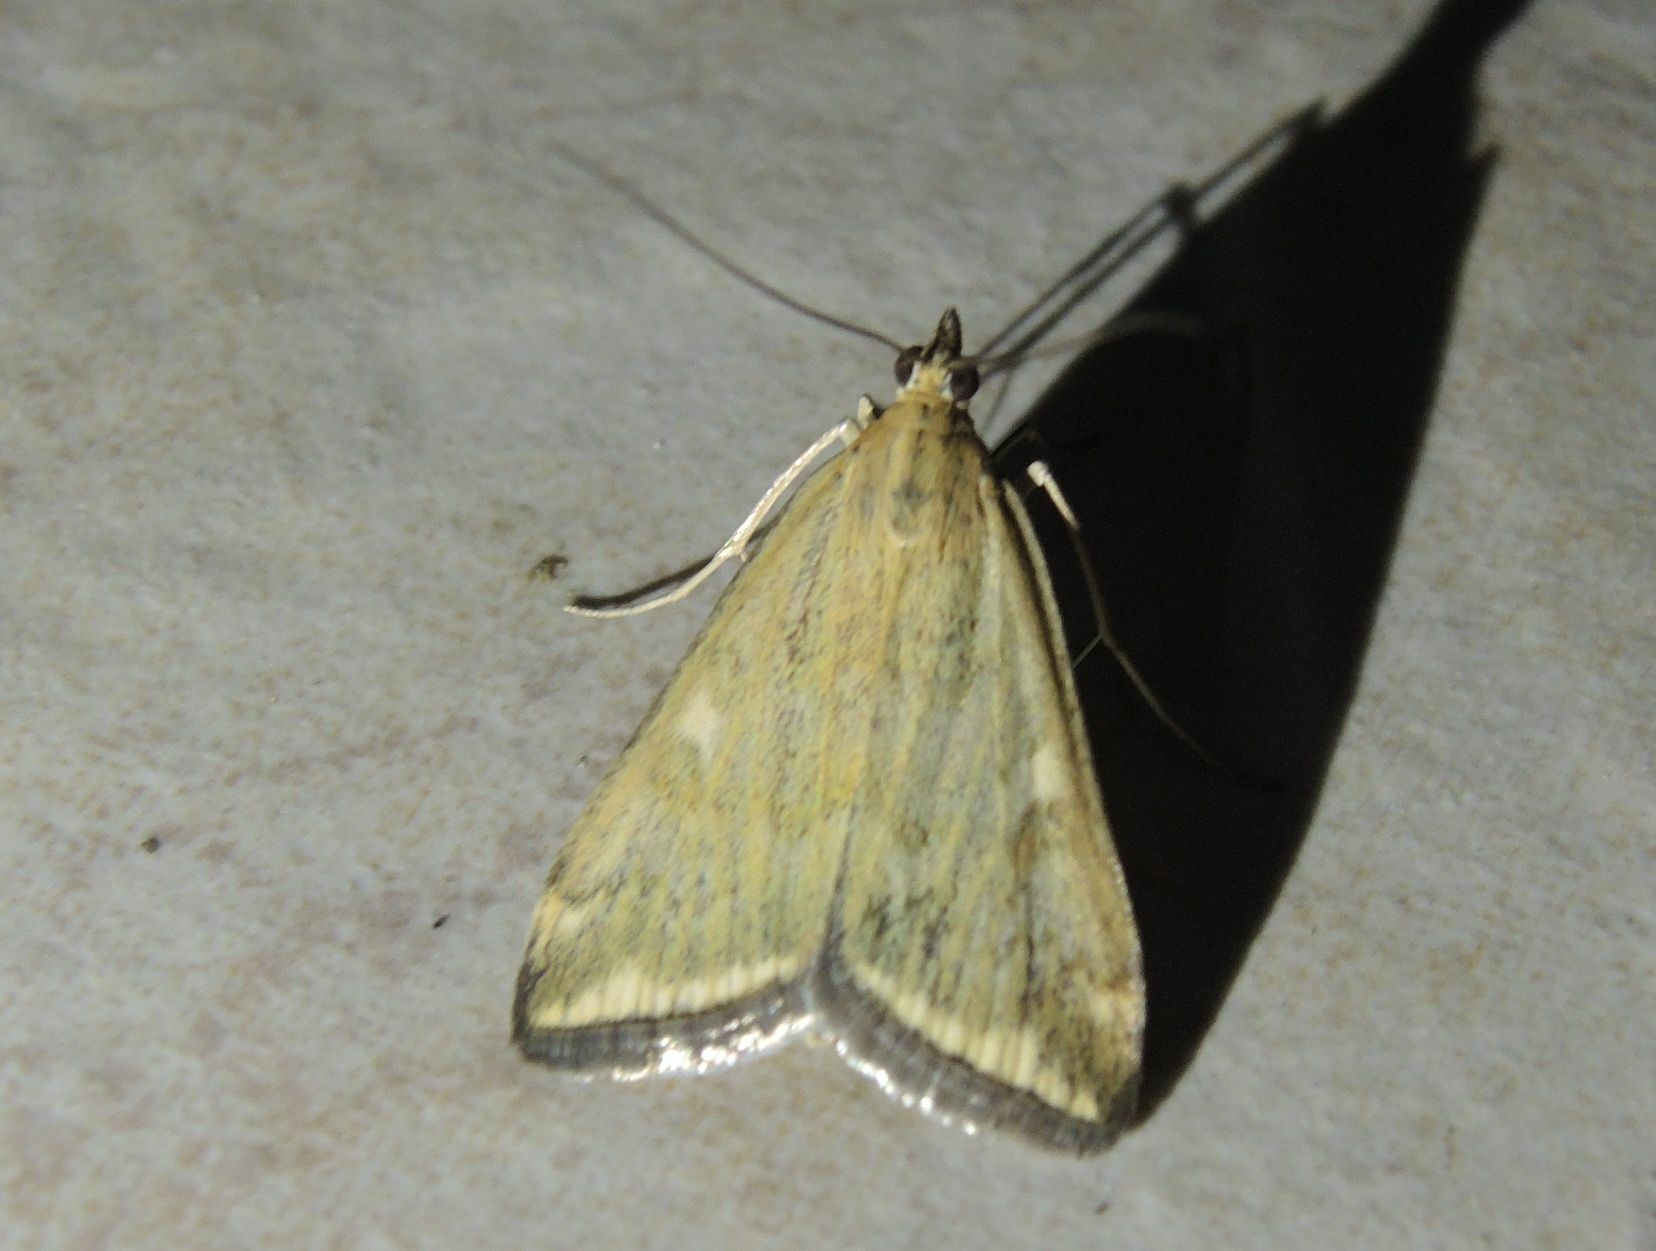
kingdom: Animalia
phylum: Arthropoda
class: Insecta
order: Lepidoptera
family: Crambidae
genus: Loxostege
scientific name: Loxostege sticticalis
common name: Crambid moth
